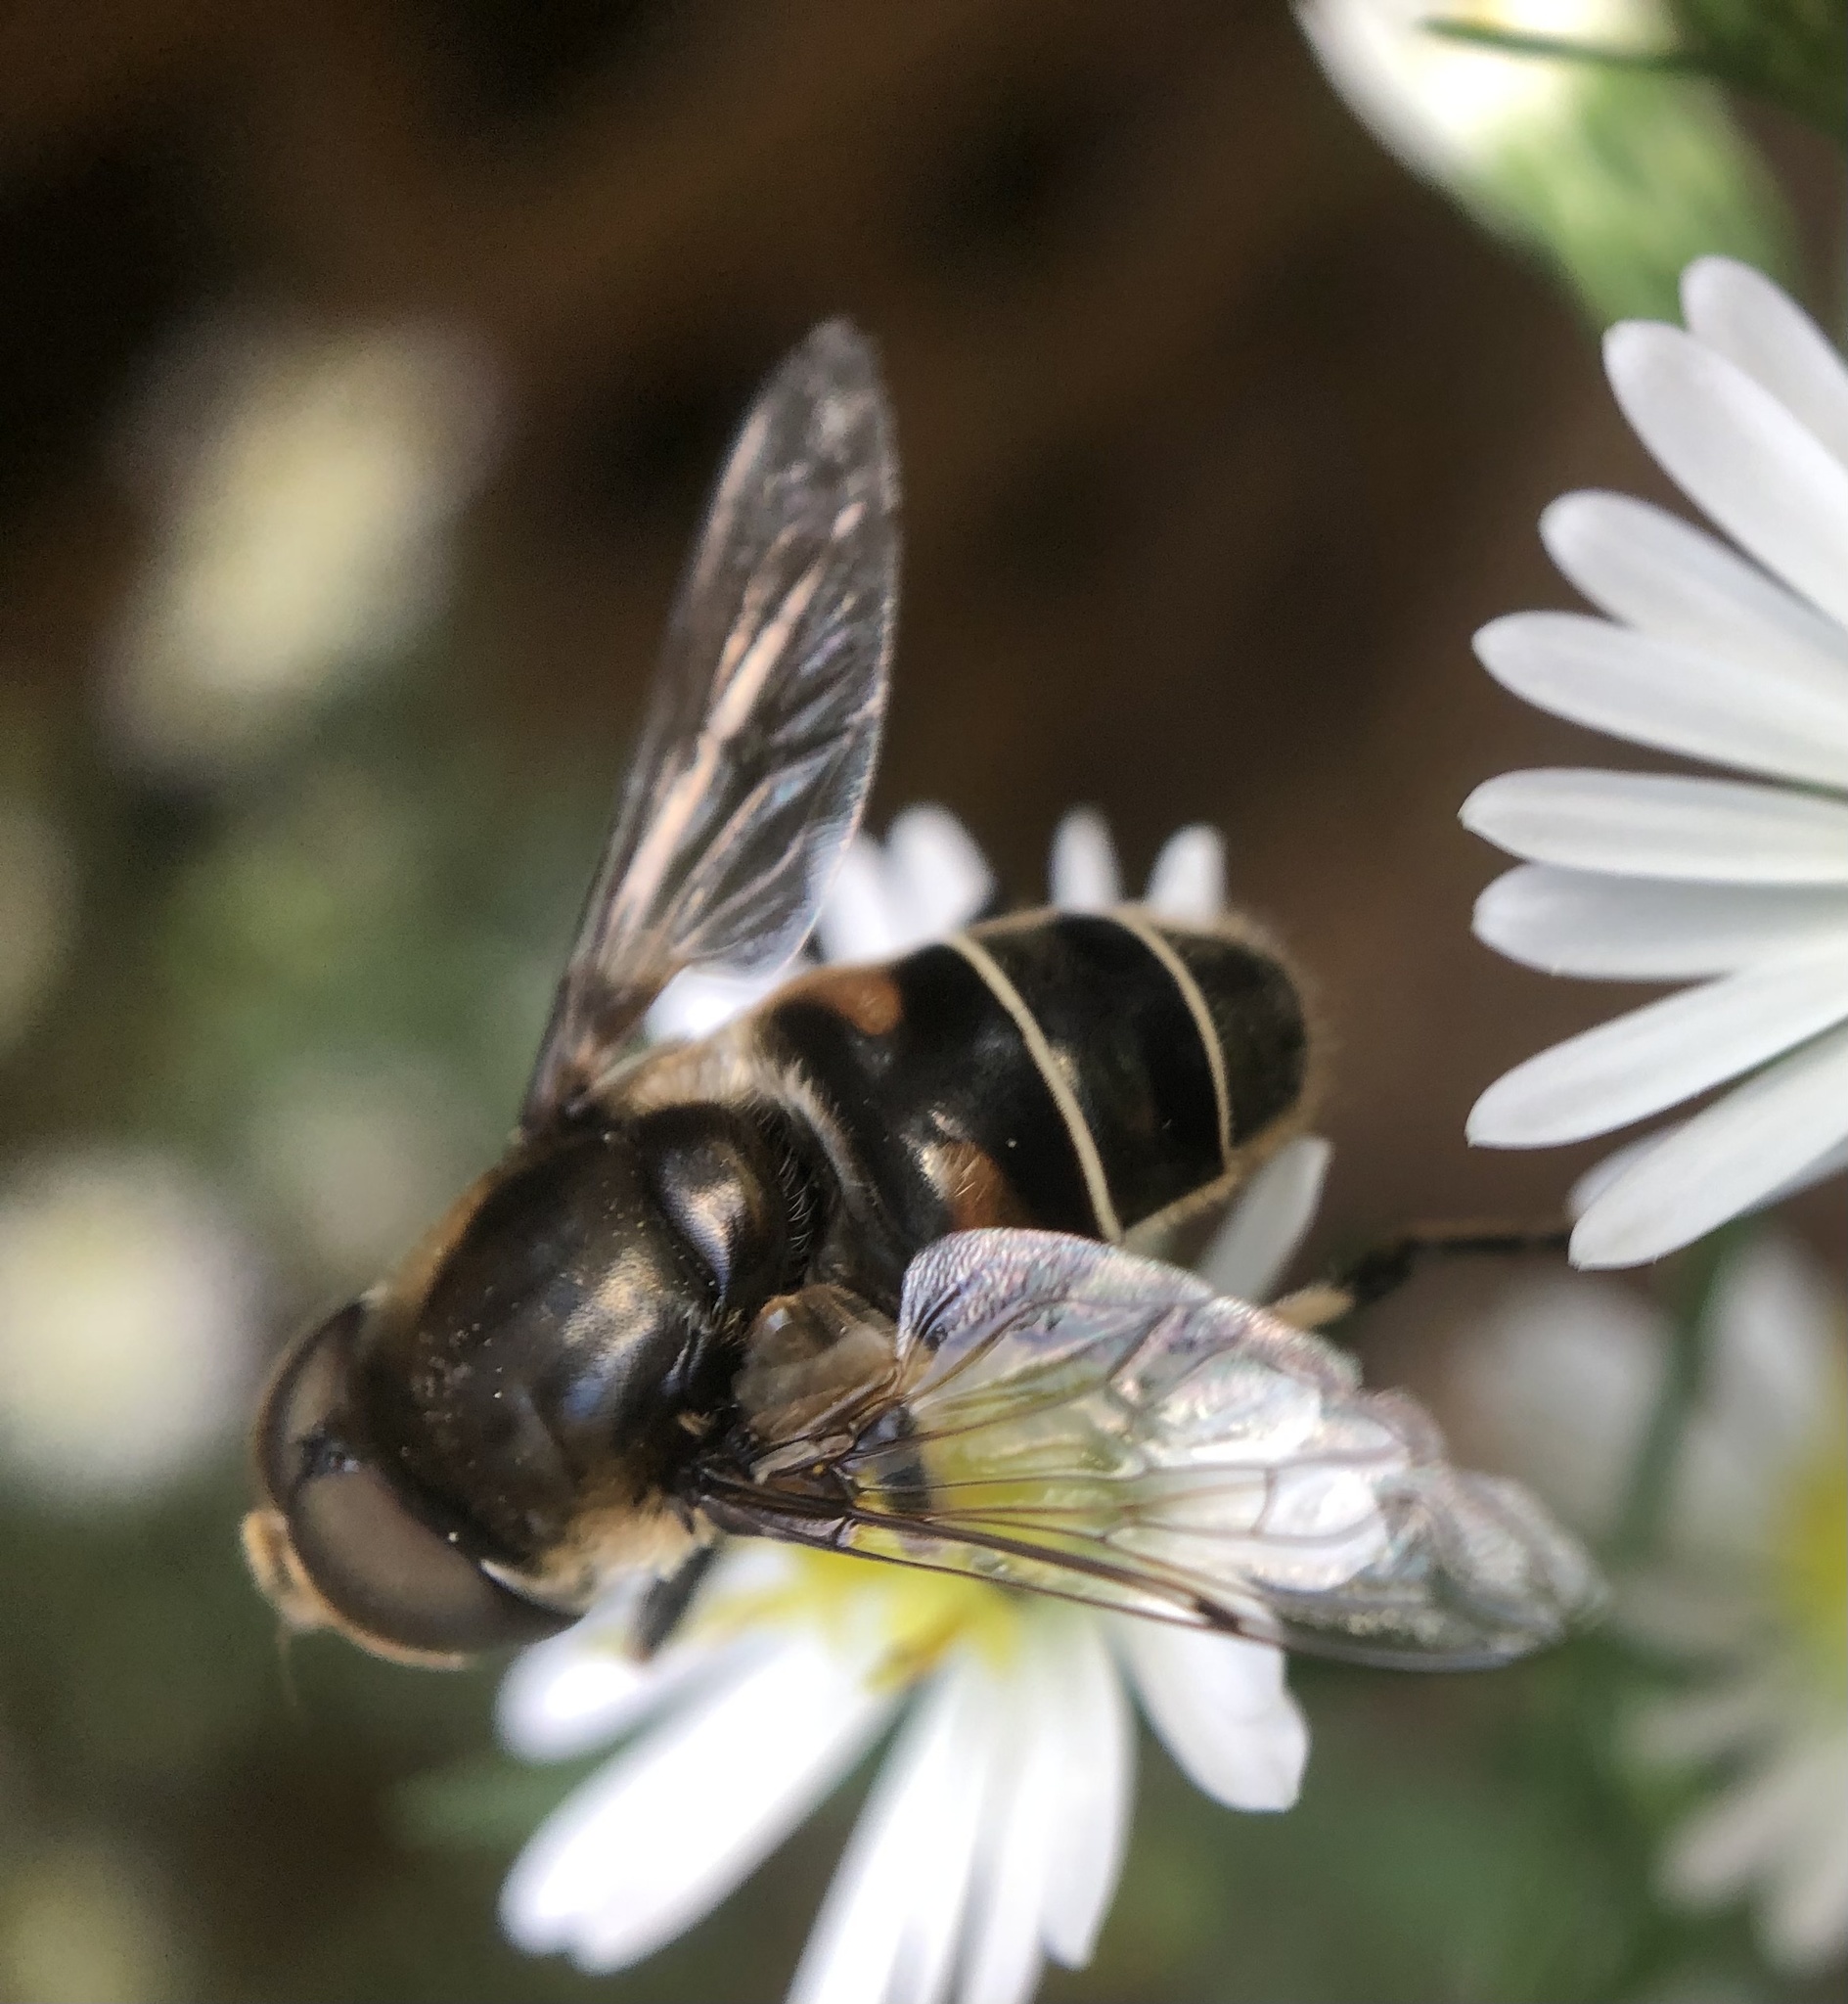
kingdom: Animalia
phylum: Arthropoda
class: Insecta
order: Diptera
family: Syrphidae
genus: Eristalis
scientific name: Eristalis dimidiata
